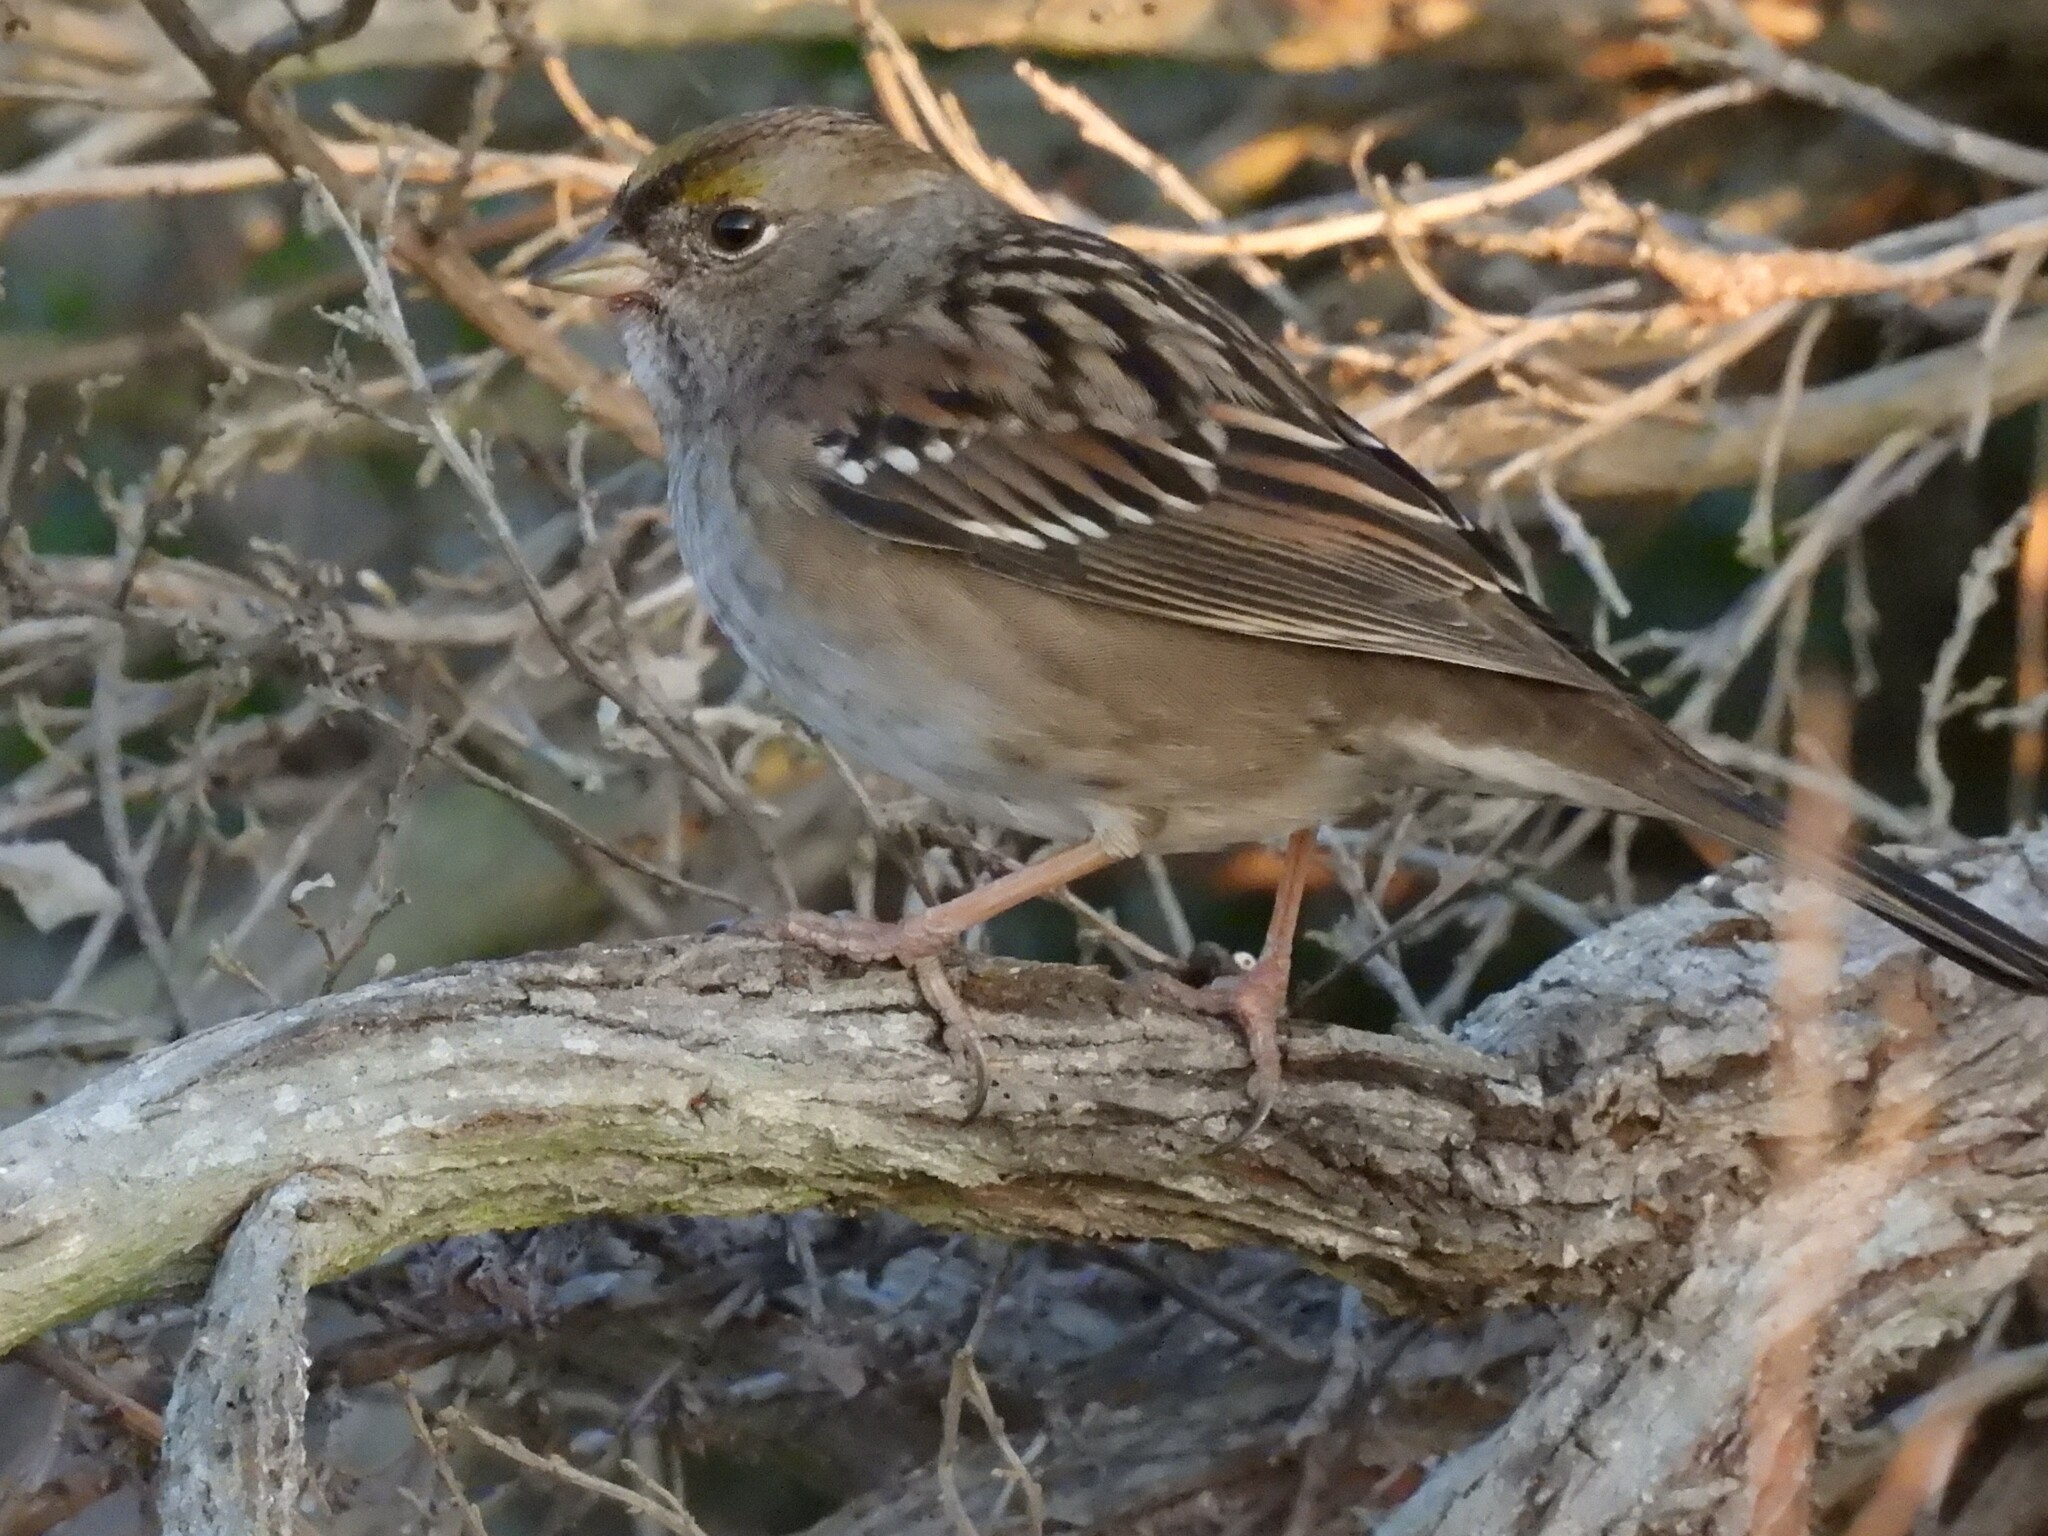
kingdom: Animalia
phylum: Chordata
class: Aves
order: Passeriformes
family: Passerellidae
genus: Zonotrichia
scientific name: Zonotrichia atricapilla
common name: Golden-crowned sparrow
